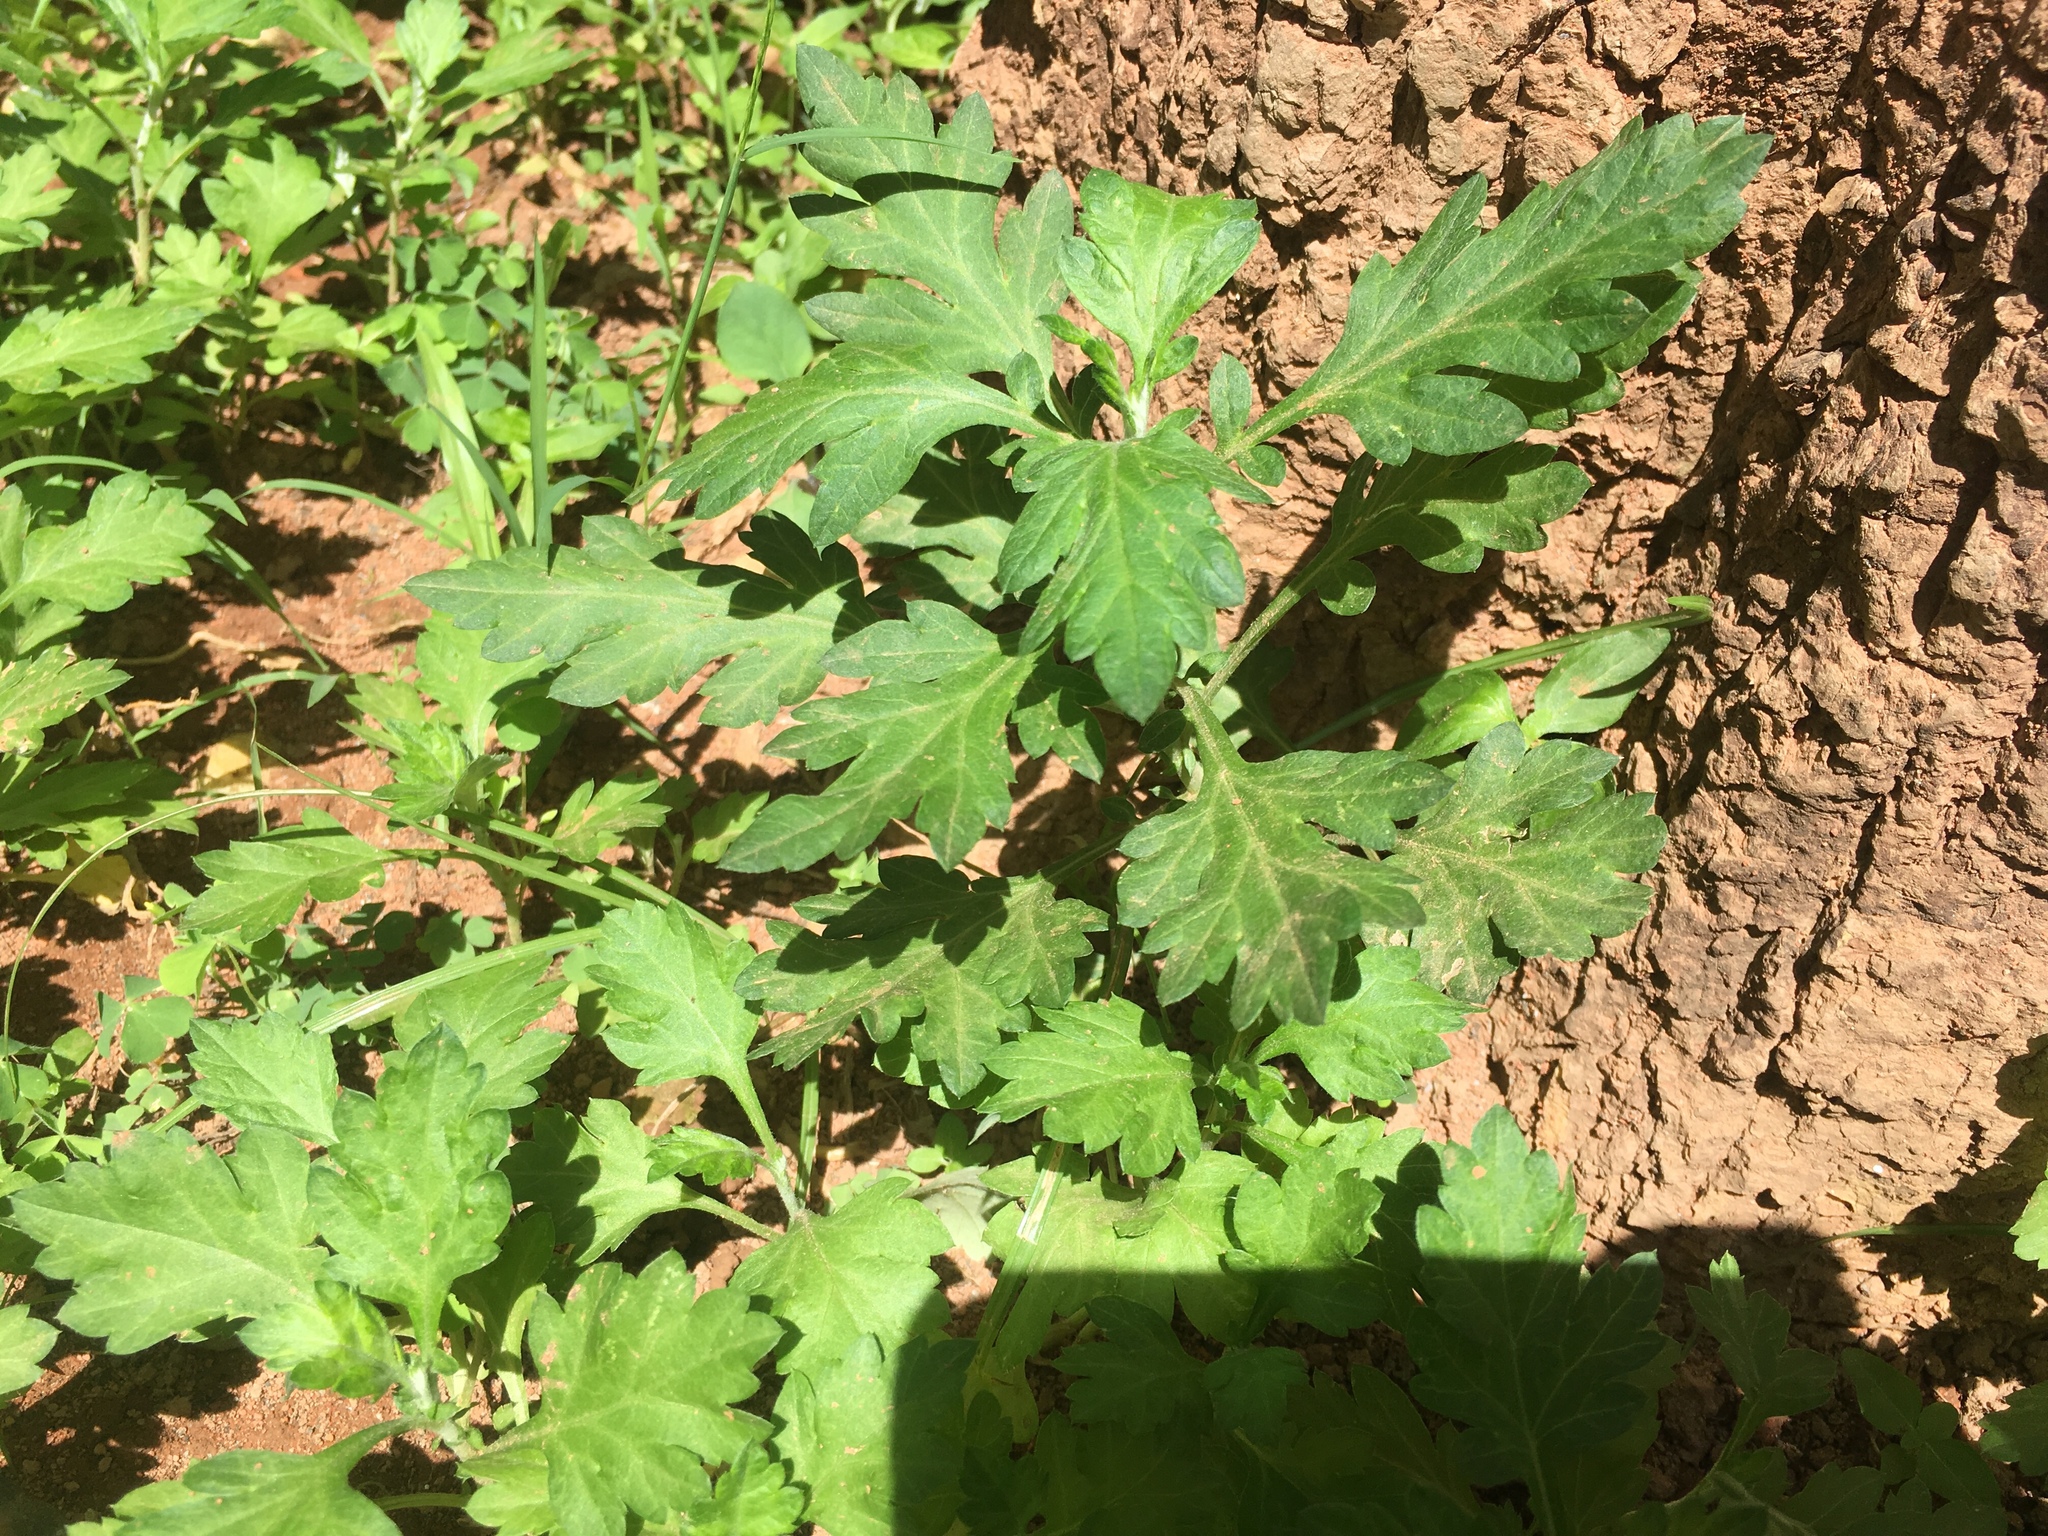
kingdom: Plantae
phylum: Tracheophyta
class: Magnoliopsida
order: Asterales
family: Asteraceae
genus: Artemisia
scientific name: Artemisia indica
